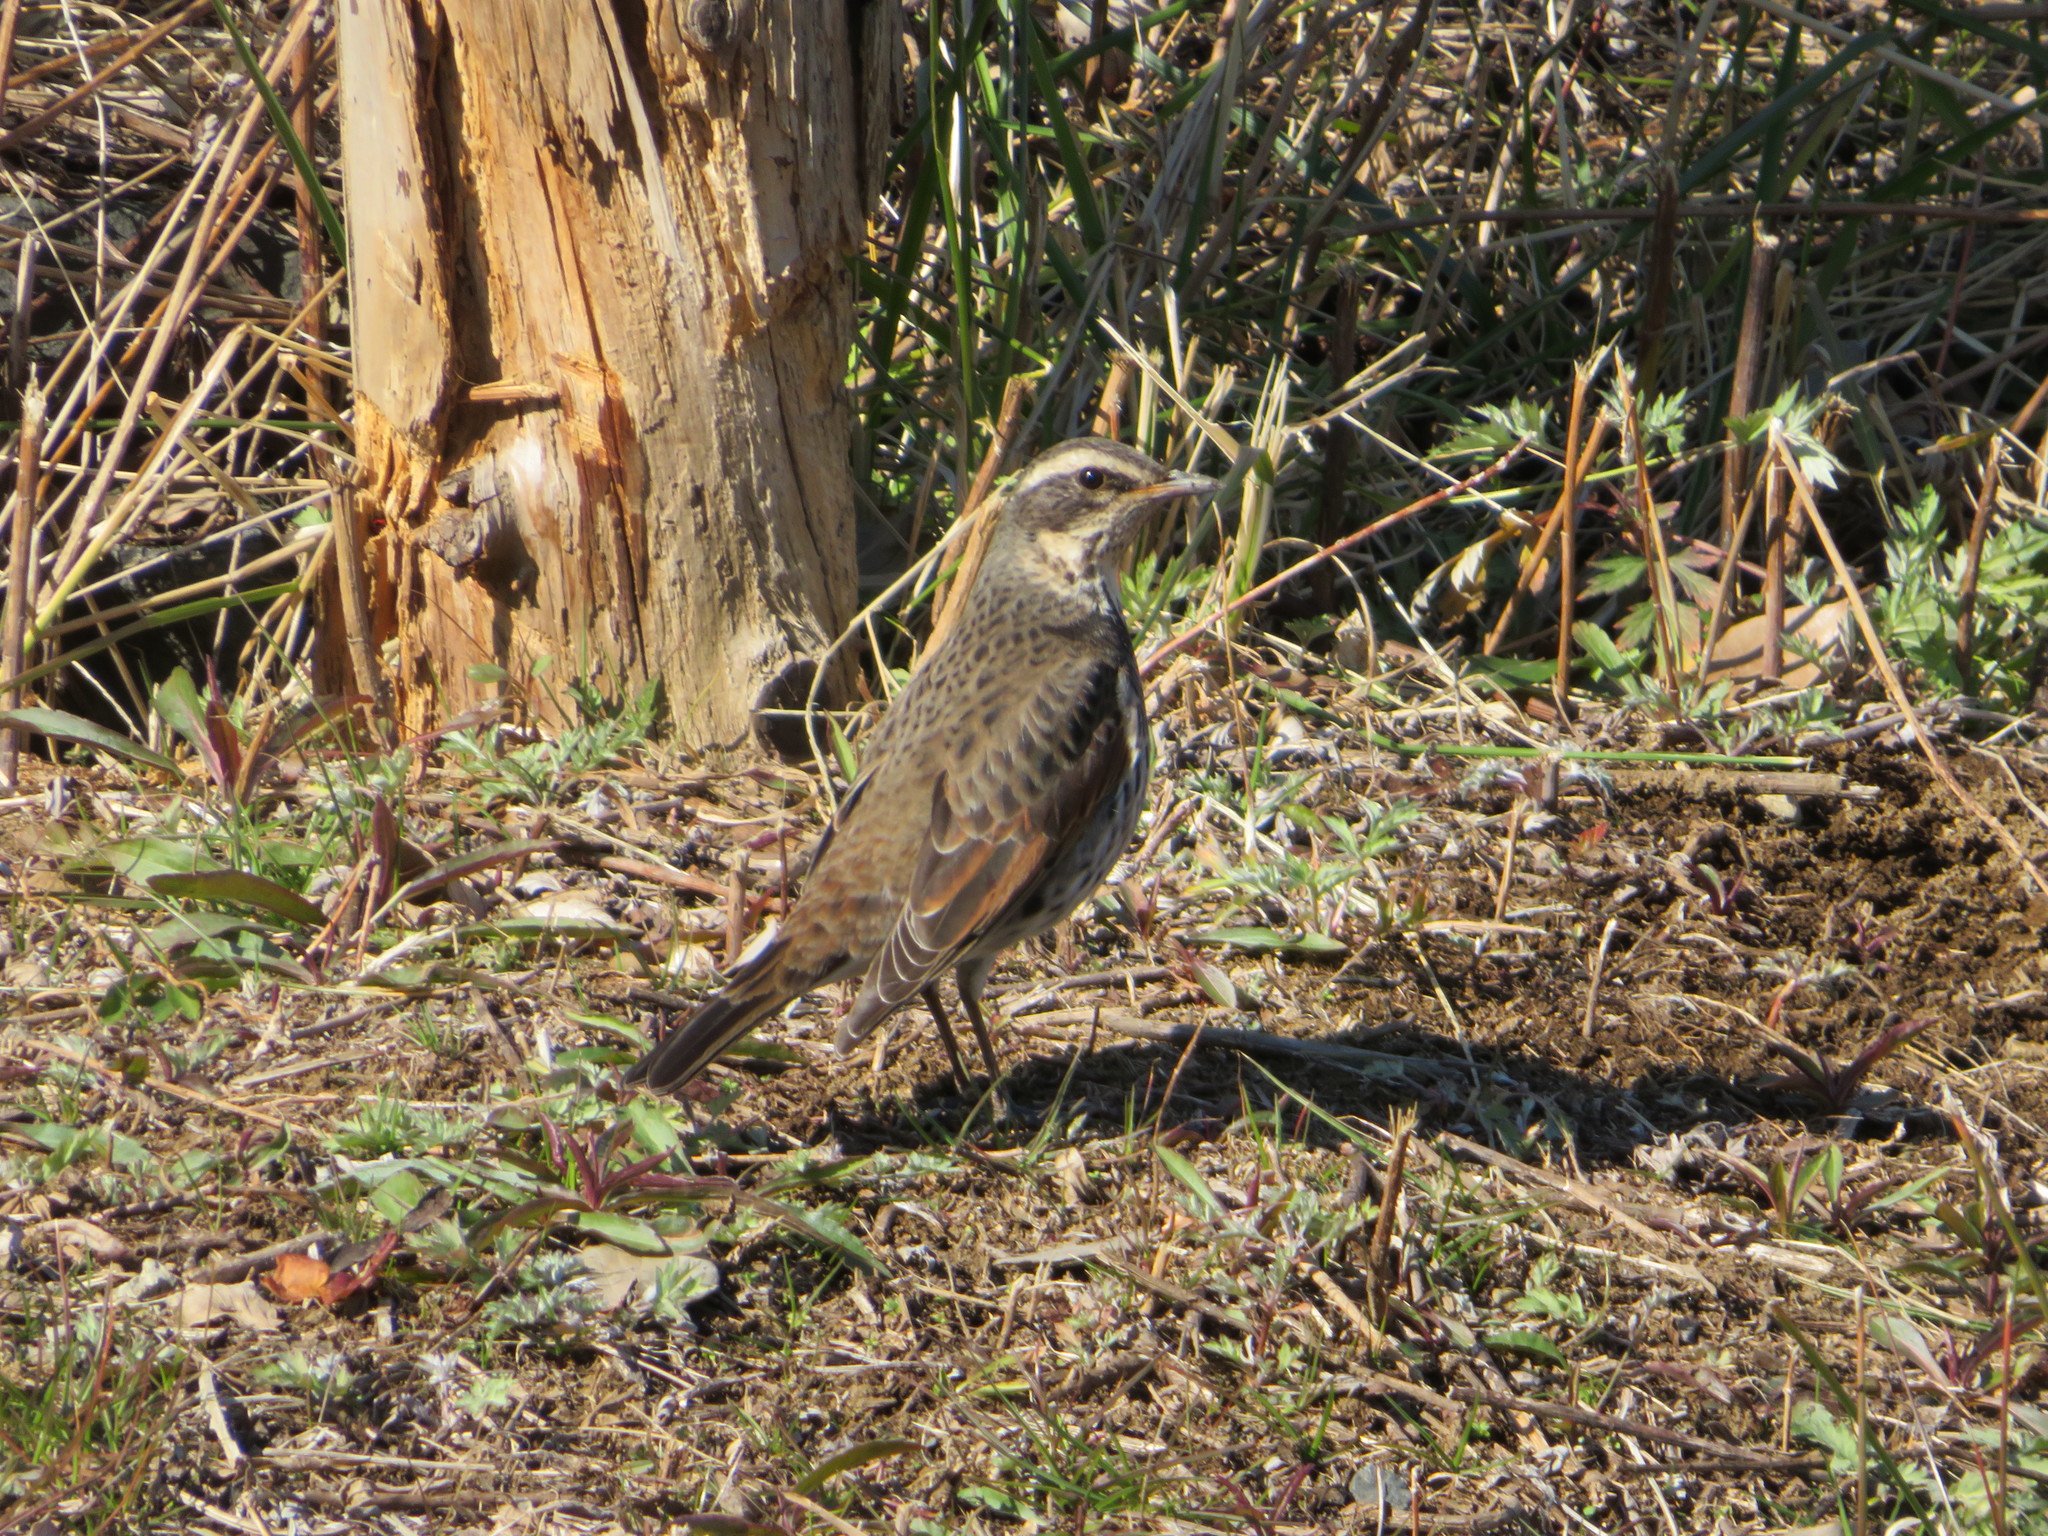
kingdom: Animalia
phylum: Chordata
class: Aves
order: Passeriformes
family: Turdidae
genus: Turdus
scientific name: Turdus eunomus
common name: Dusky thrush
